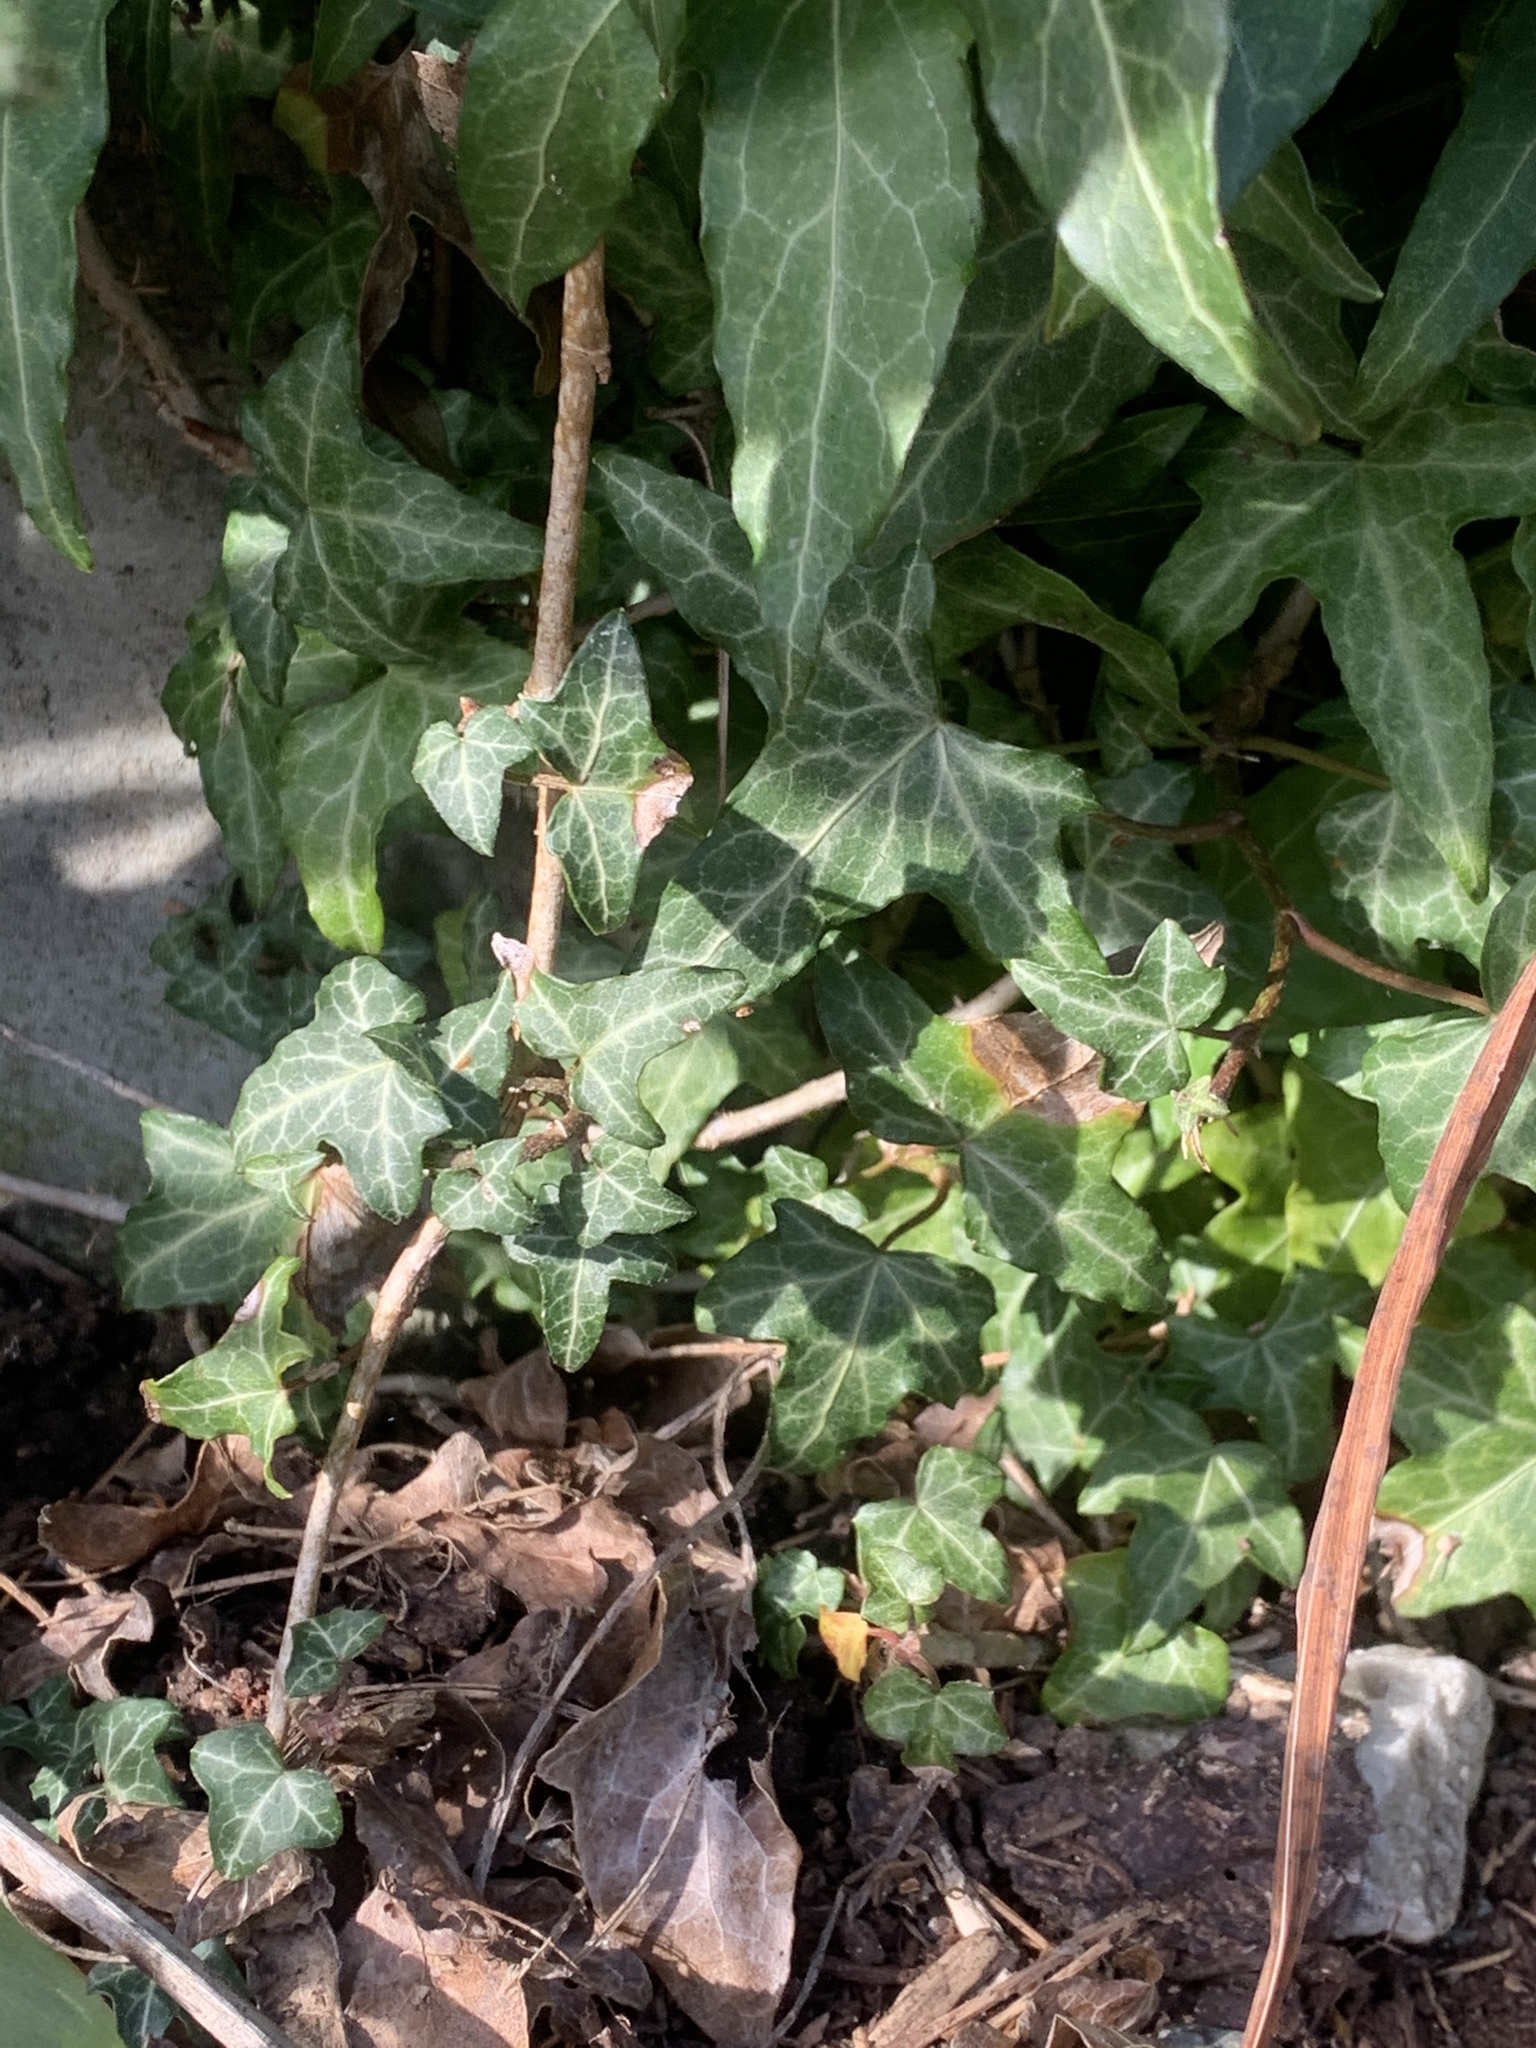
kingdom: Plantae
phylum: Tracheophyta
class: Magnoliopsida
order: Apiales
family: Araliaceae
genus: Hedera
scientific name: Hedera helix
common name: Ivy
